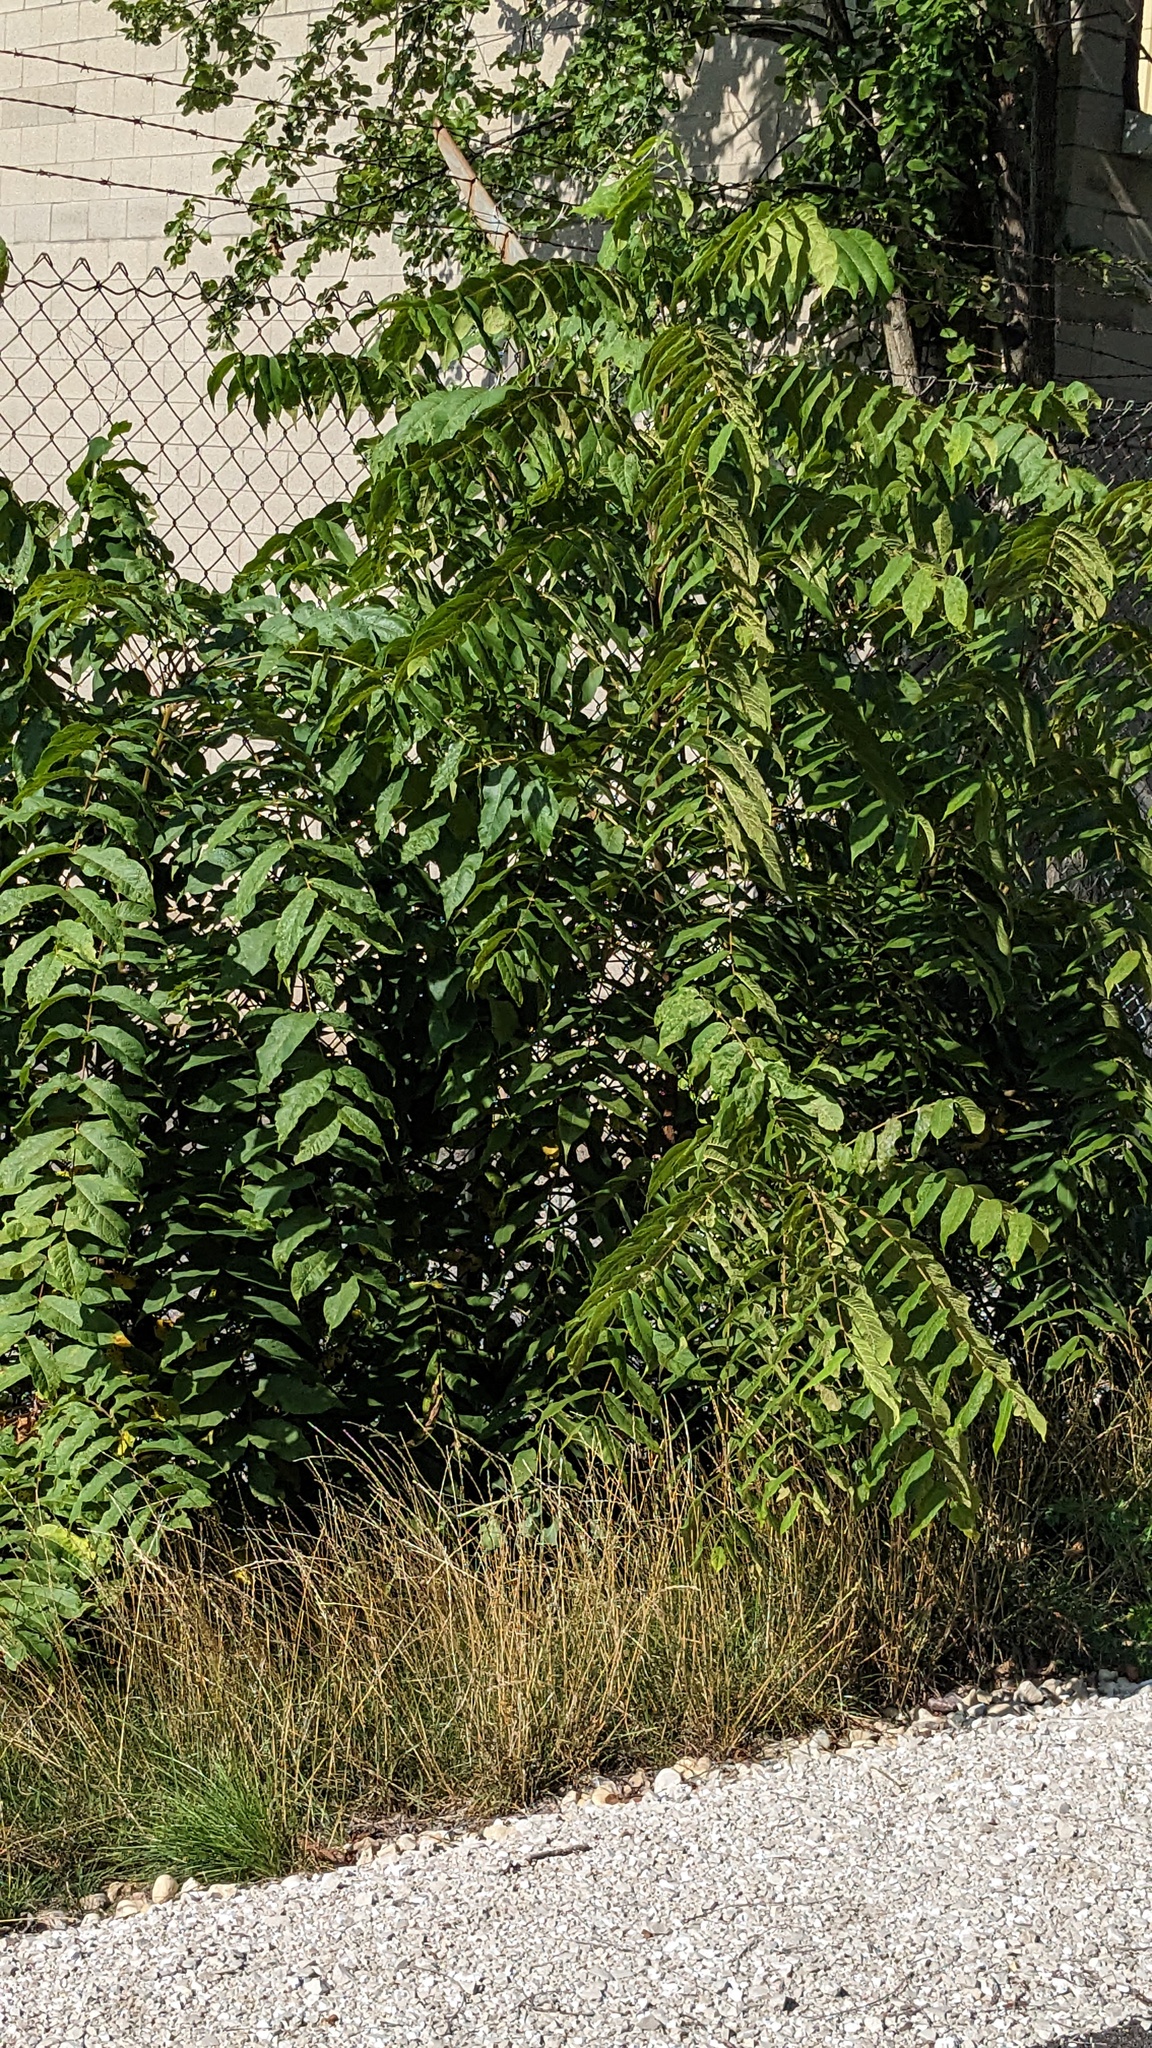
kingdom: Plantae
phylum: Tracheophyta
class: Magnoliopsida
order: Sapindales
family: Simaroubaceae
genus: Ailanthus
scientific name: Ailanthus altissima
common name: Tree-of-heaven
